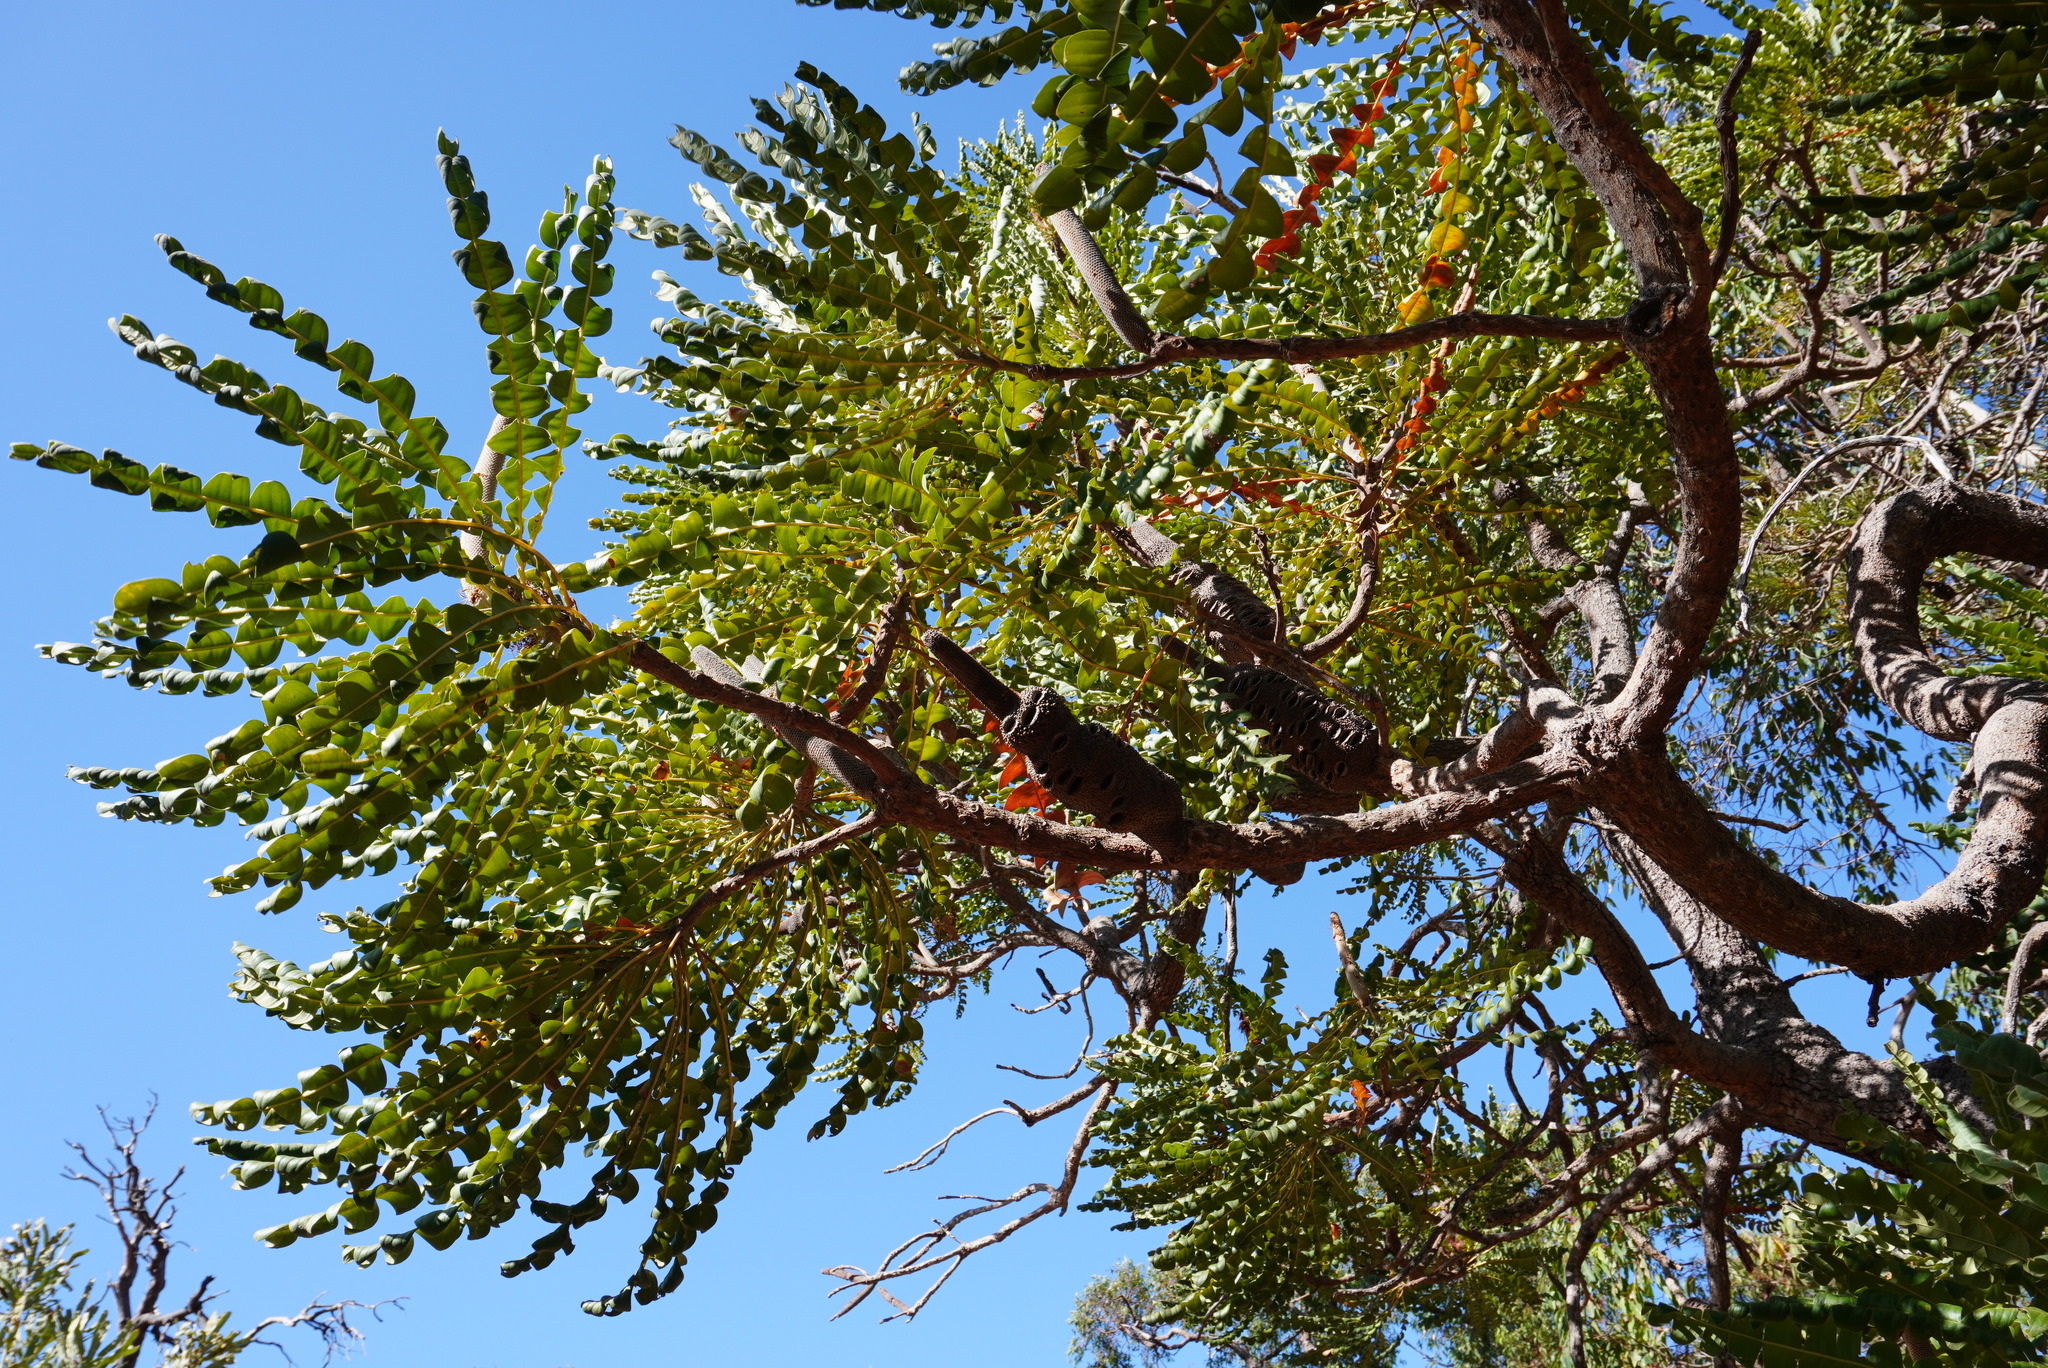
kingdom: Plantae
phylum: Tracheophyta
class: Magnoliopsida
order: Proteales
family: Proteaceae
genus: Banksia
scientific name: Banksia grandis
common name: Giant banksia
